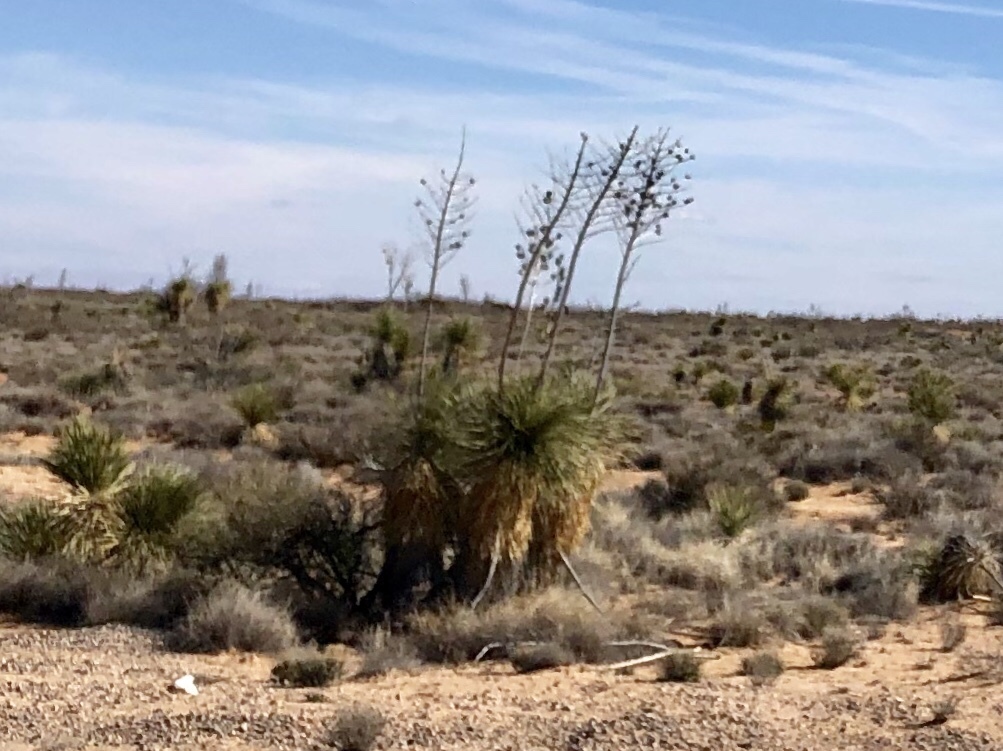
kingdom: Plantae
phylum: Tracheophyta
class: Liliopsida
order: Asparagales
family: Asparagaceae
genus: Yucca
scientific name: Yucca elata
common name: Palmella
